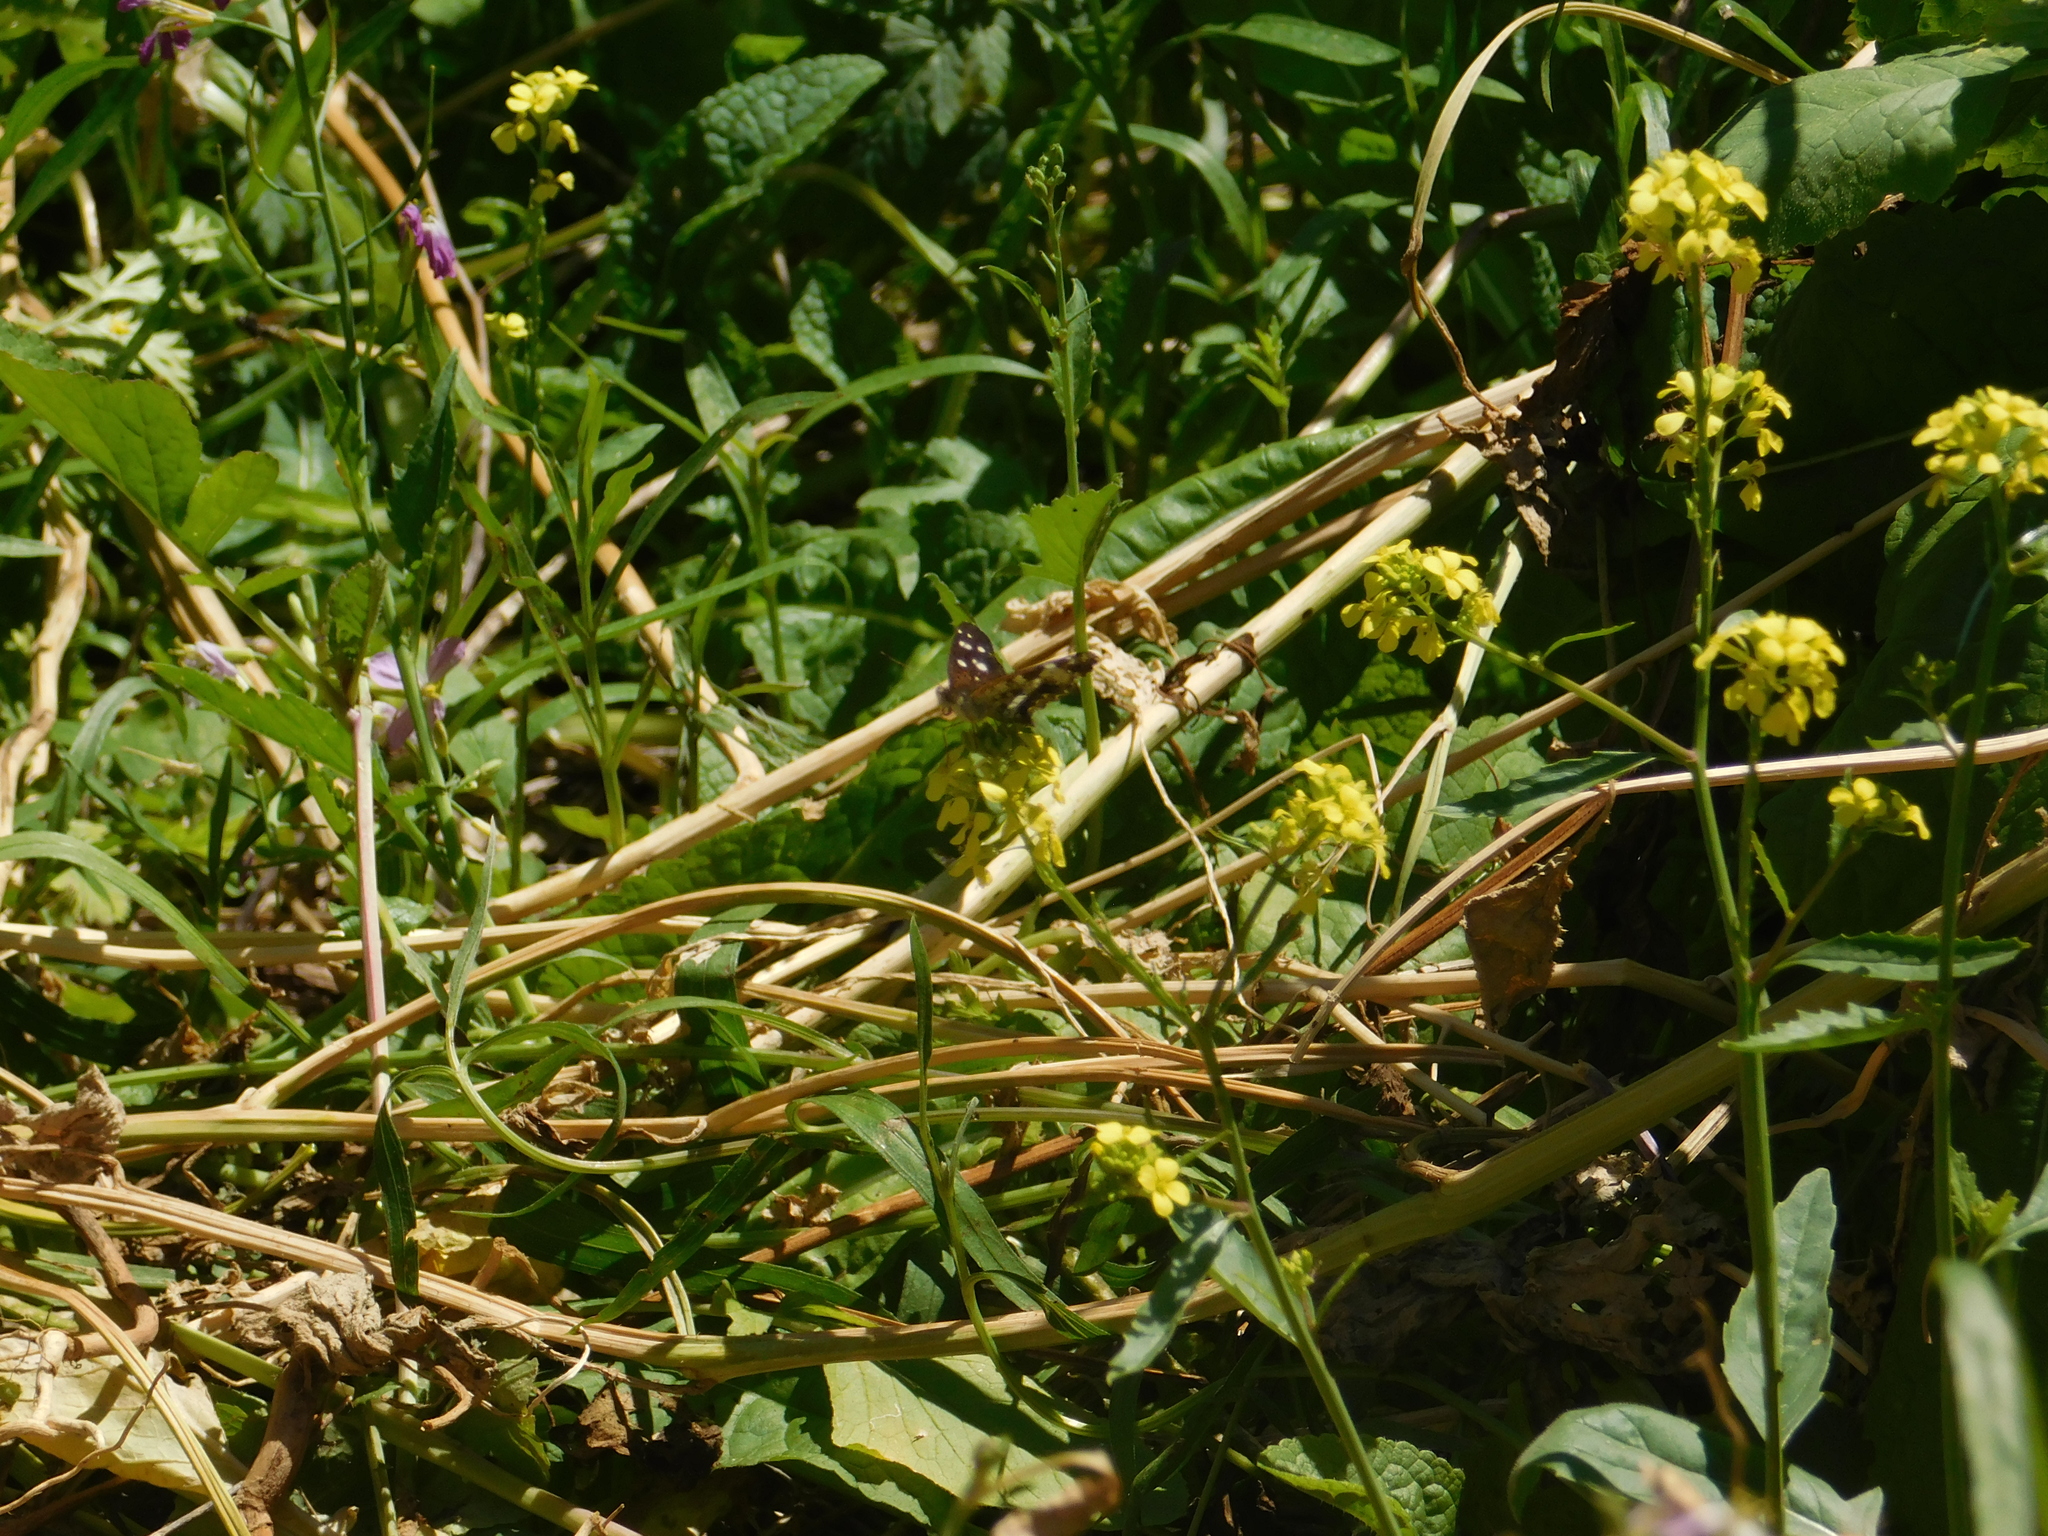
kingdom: Animalia
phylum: Arthropoda
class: Insecta
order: Lepidoptera
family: Nymphalidae
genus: Ortilia
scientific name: Ortilia ithra
